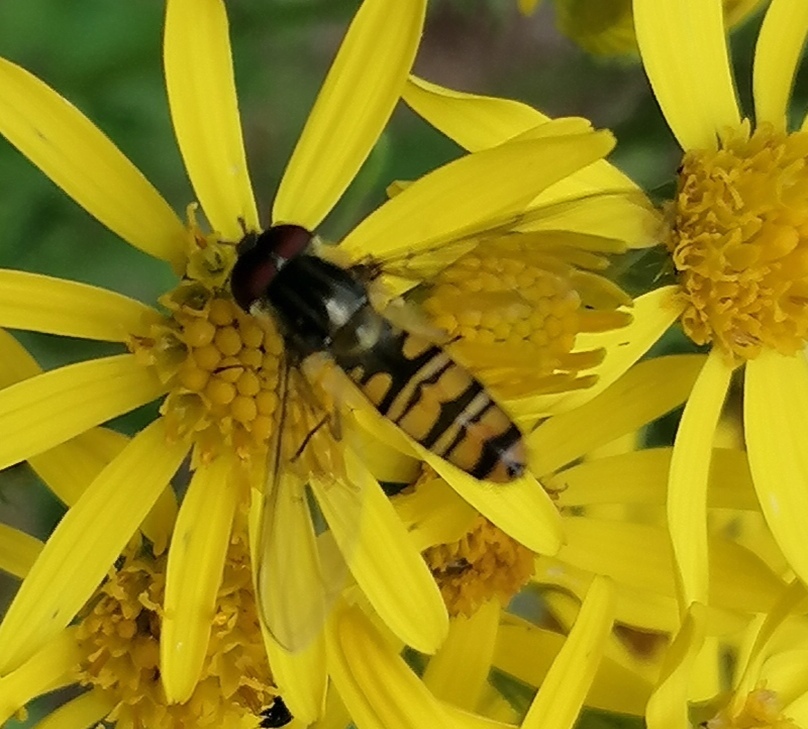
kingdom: Animalia
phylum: Arthropoda
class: Insecta
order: Diptera
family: Syrphidae
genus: Episyrphus
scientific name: Episyrphus balteatus
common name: Marmalade hoverfly
